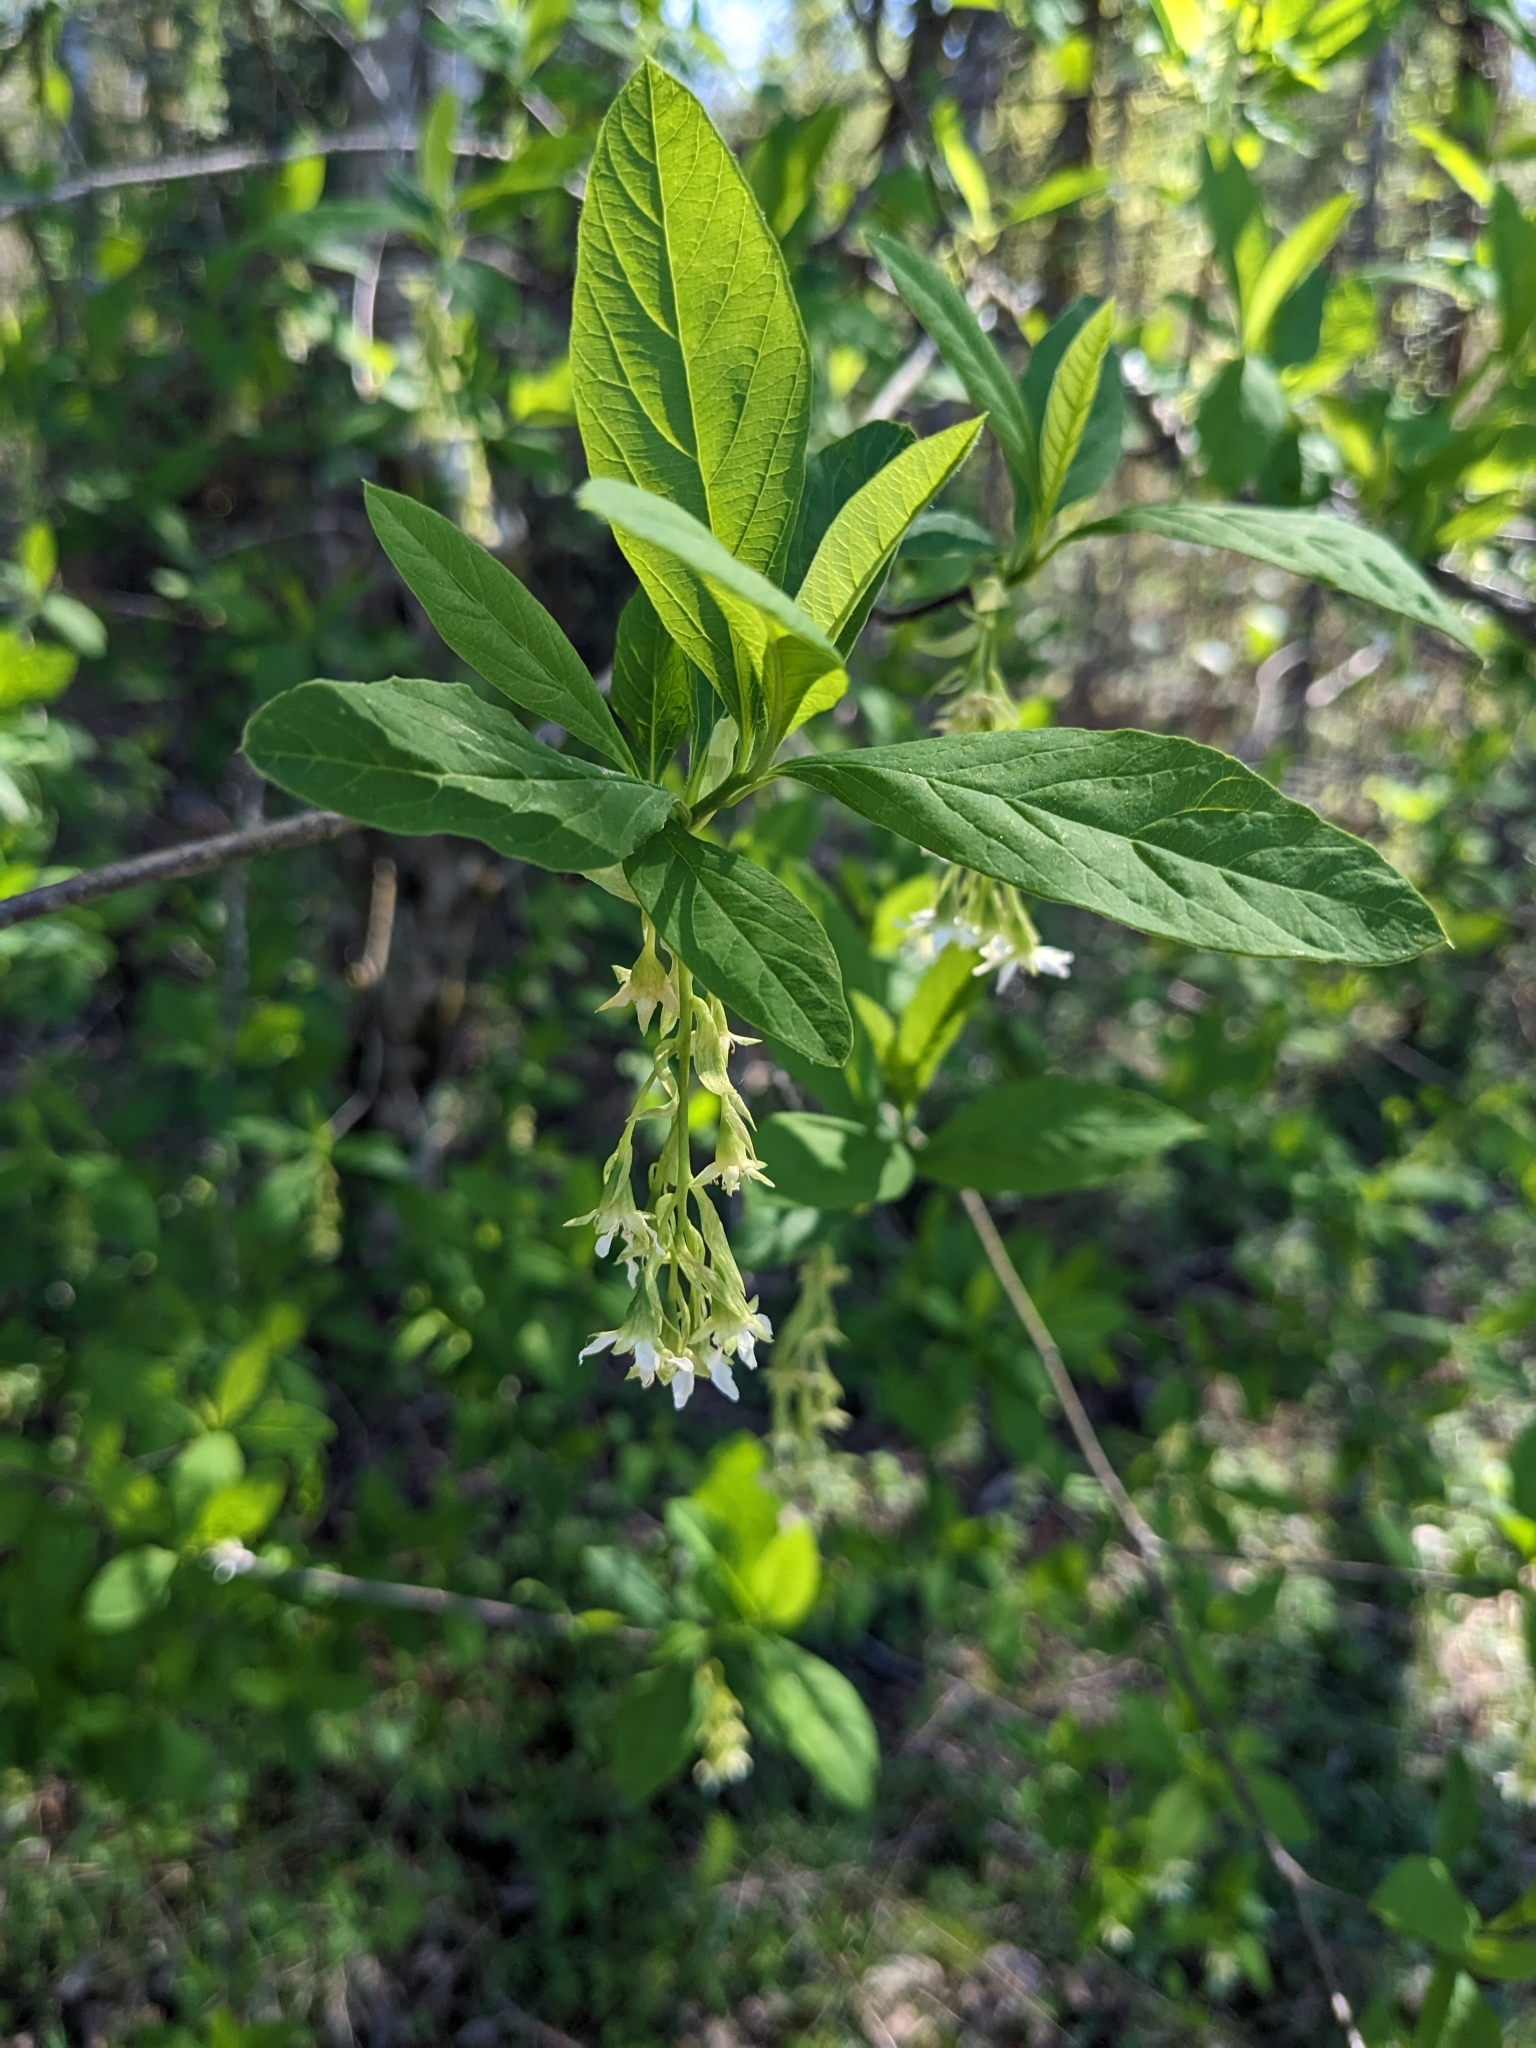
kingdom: Plantae
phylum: Tracheophyta
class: Magnoliopsida
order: Rosales
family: Rosaceae
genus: Oemleria
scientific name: Oemleria cerasiformis
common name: Osoberry
